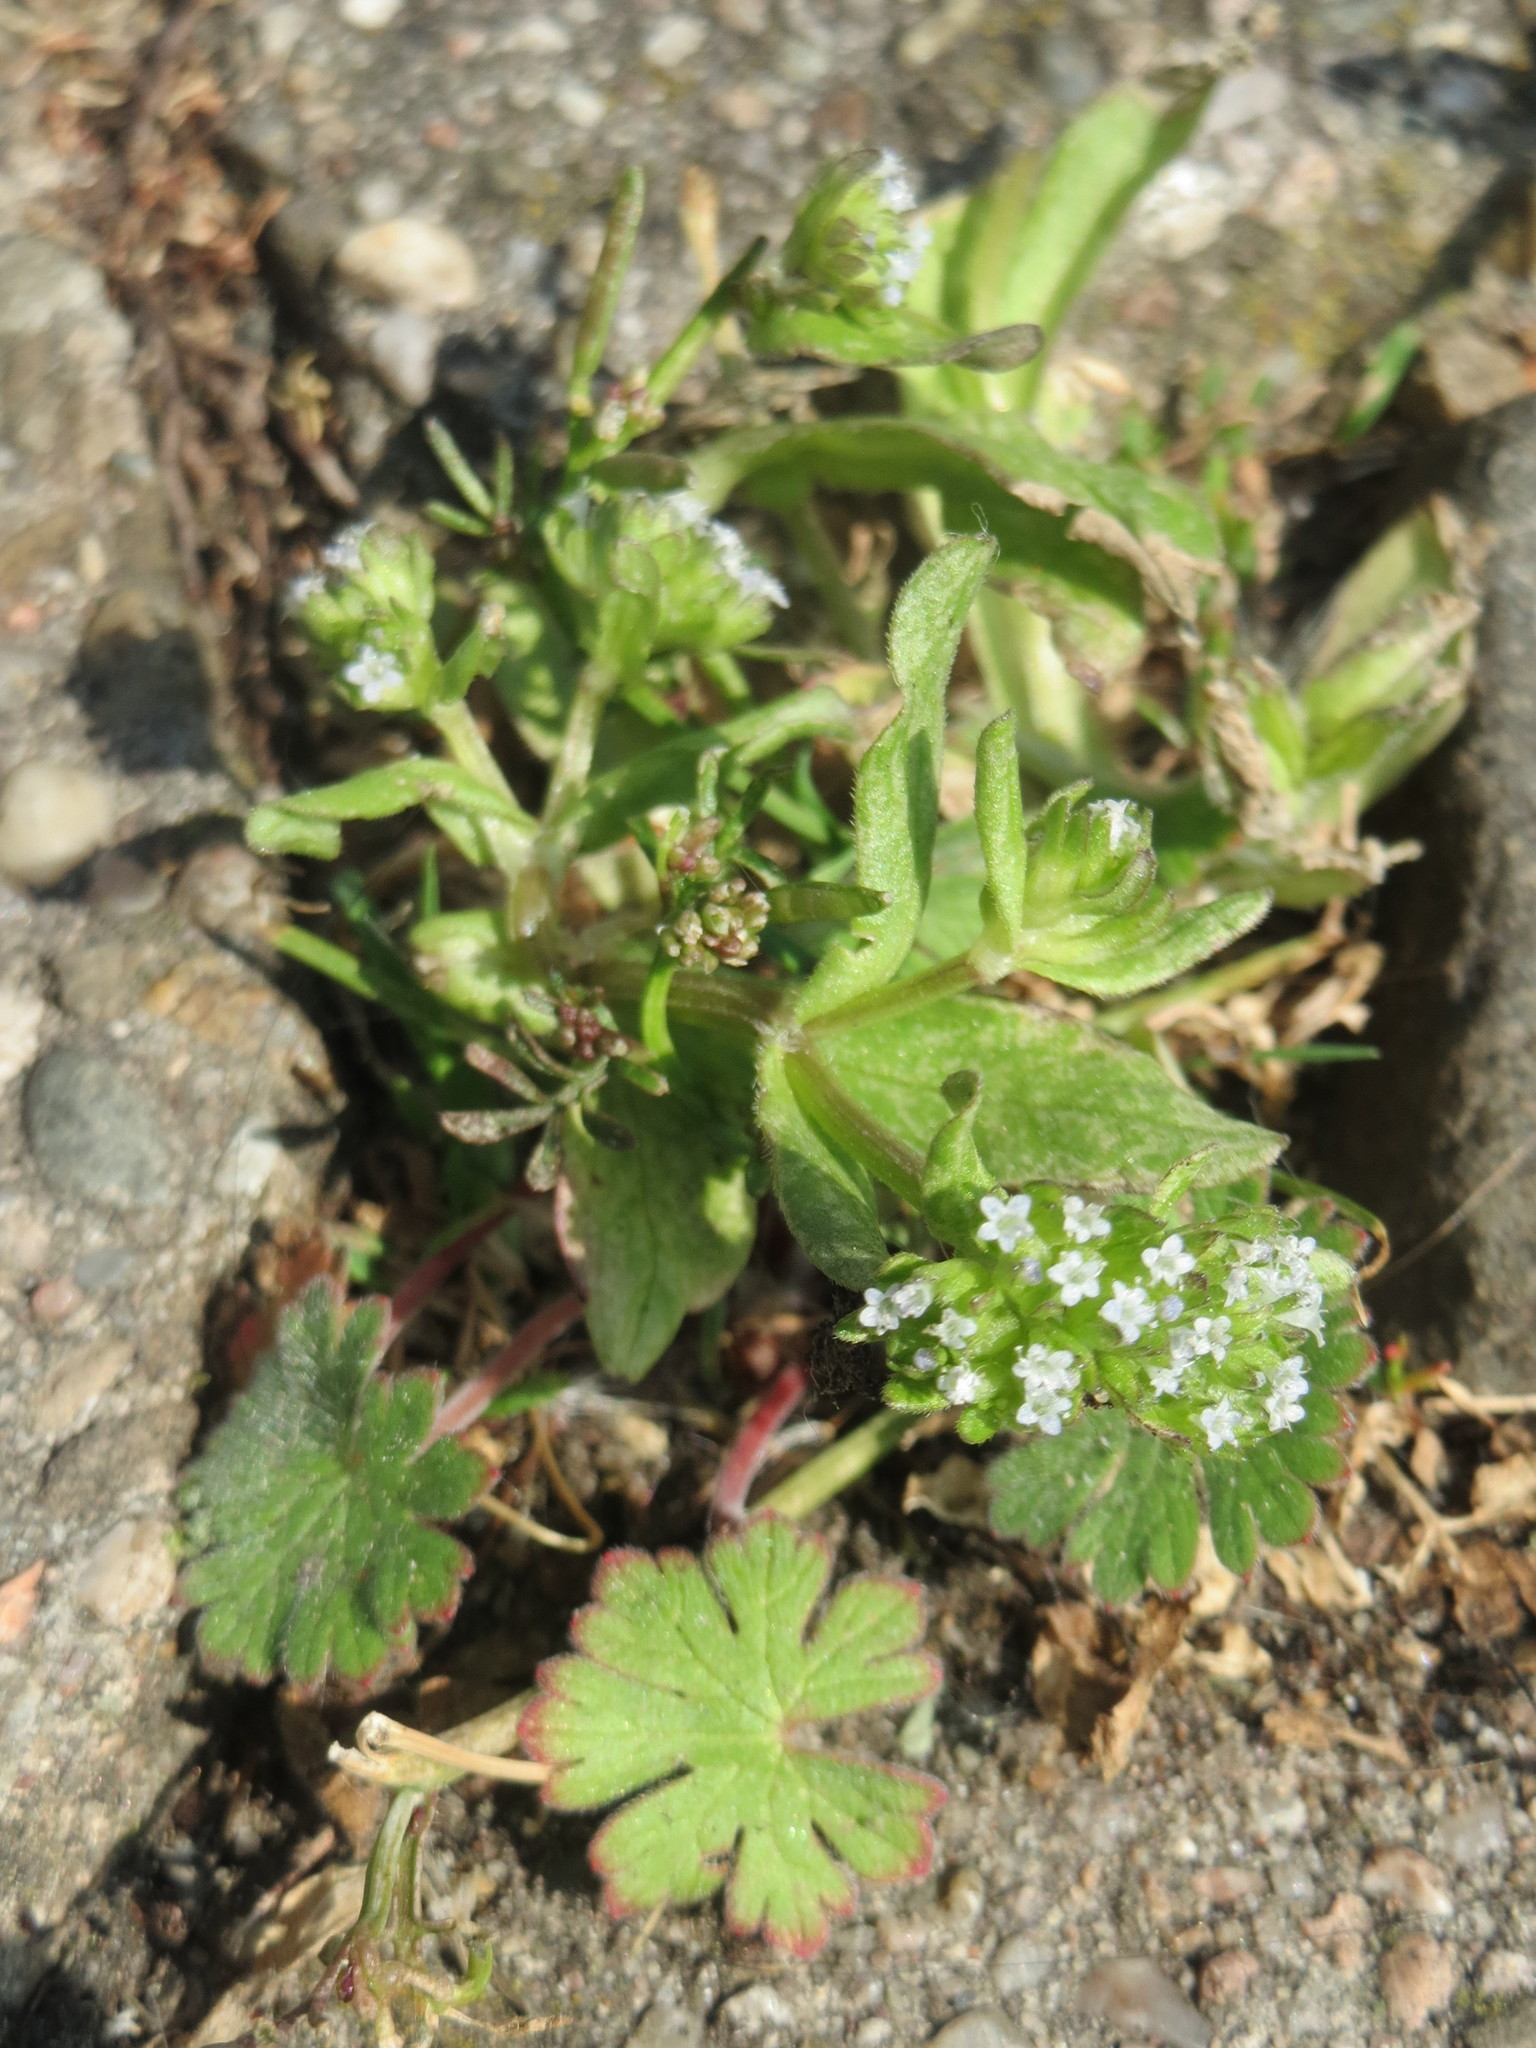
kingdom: Plantae
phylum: Tracheophyta
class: Magnoliopsida
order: Dipsacales
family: Caprifoliaceae
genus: Valerianella
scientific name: Valerianella locusta
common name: Common cornsalad
